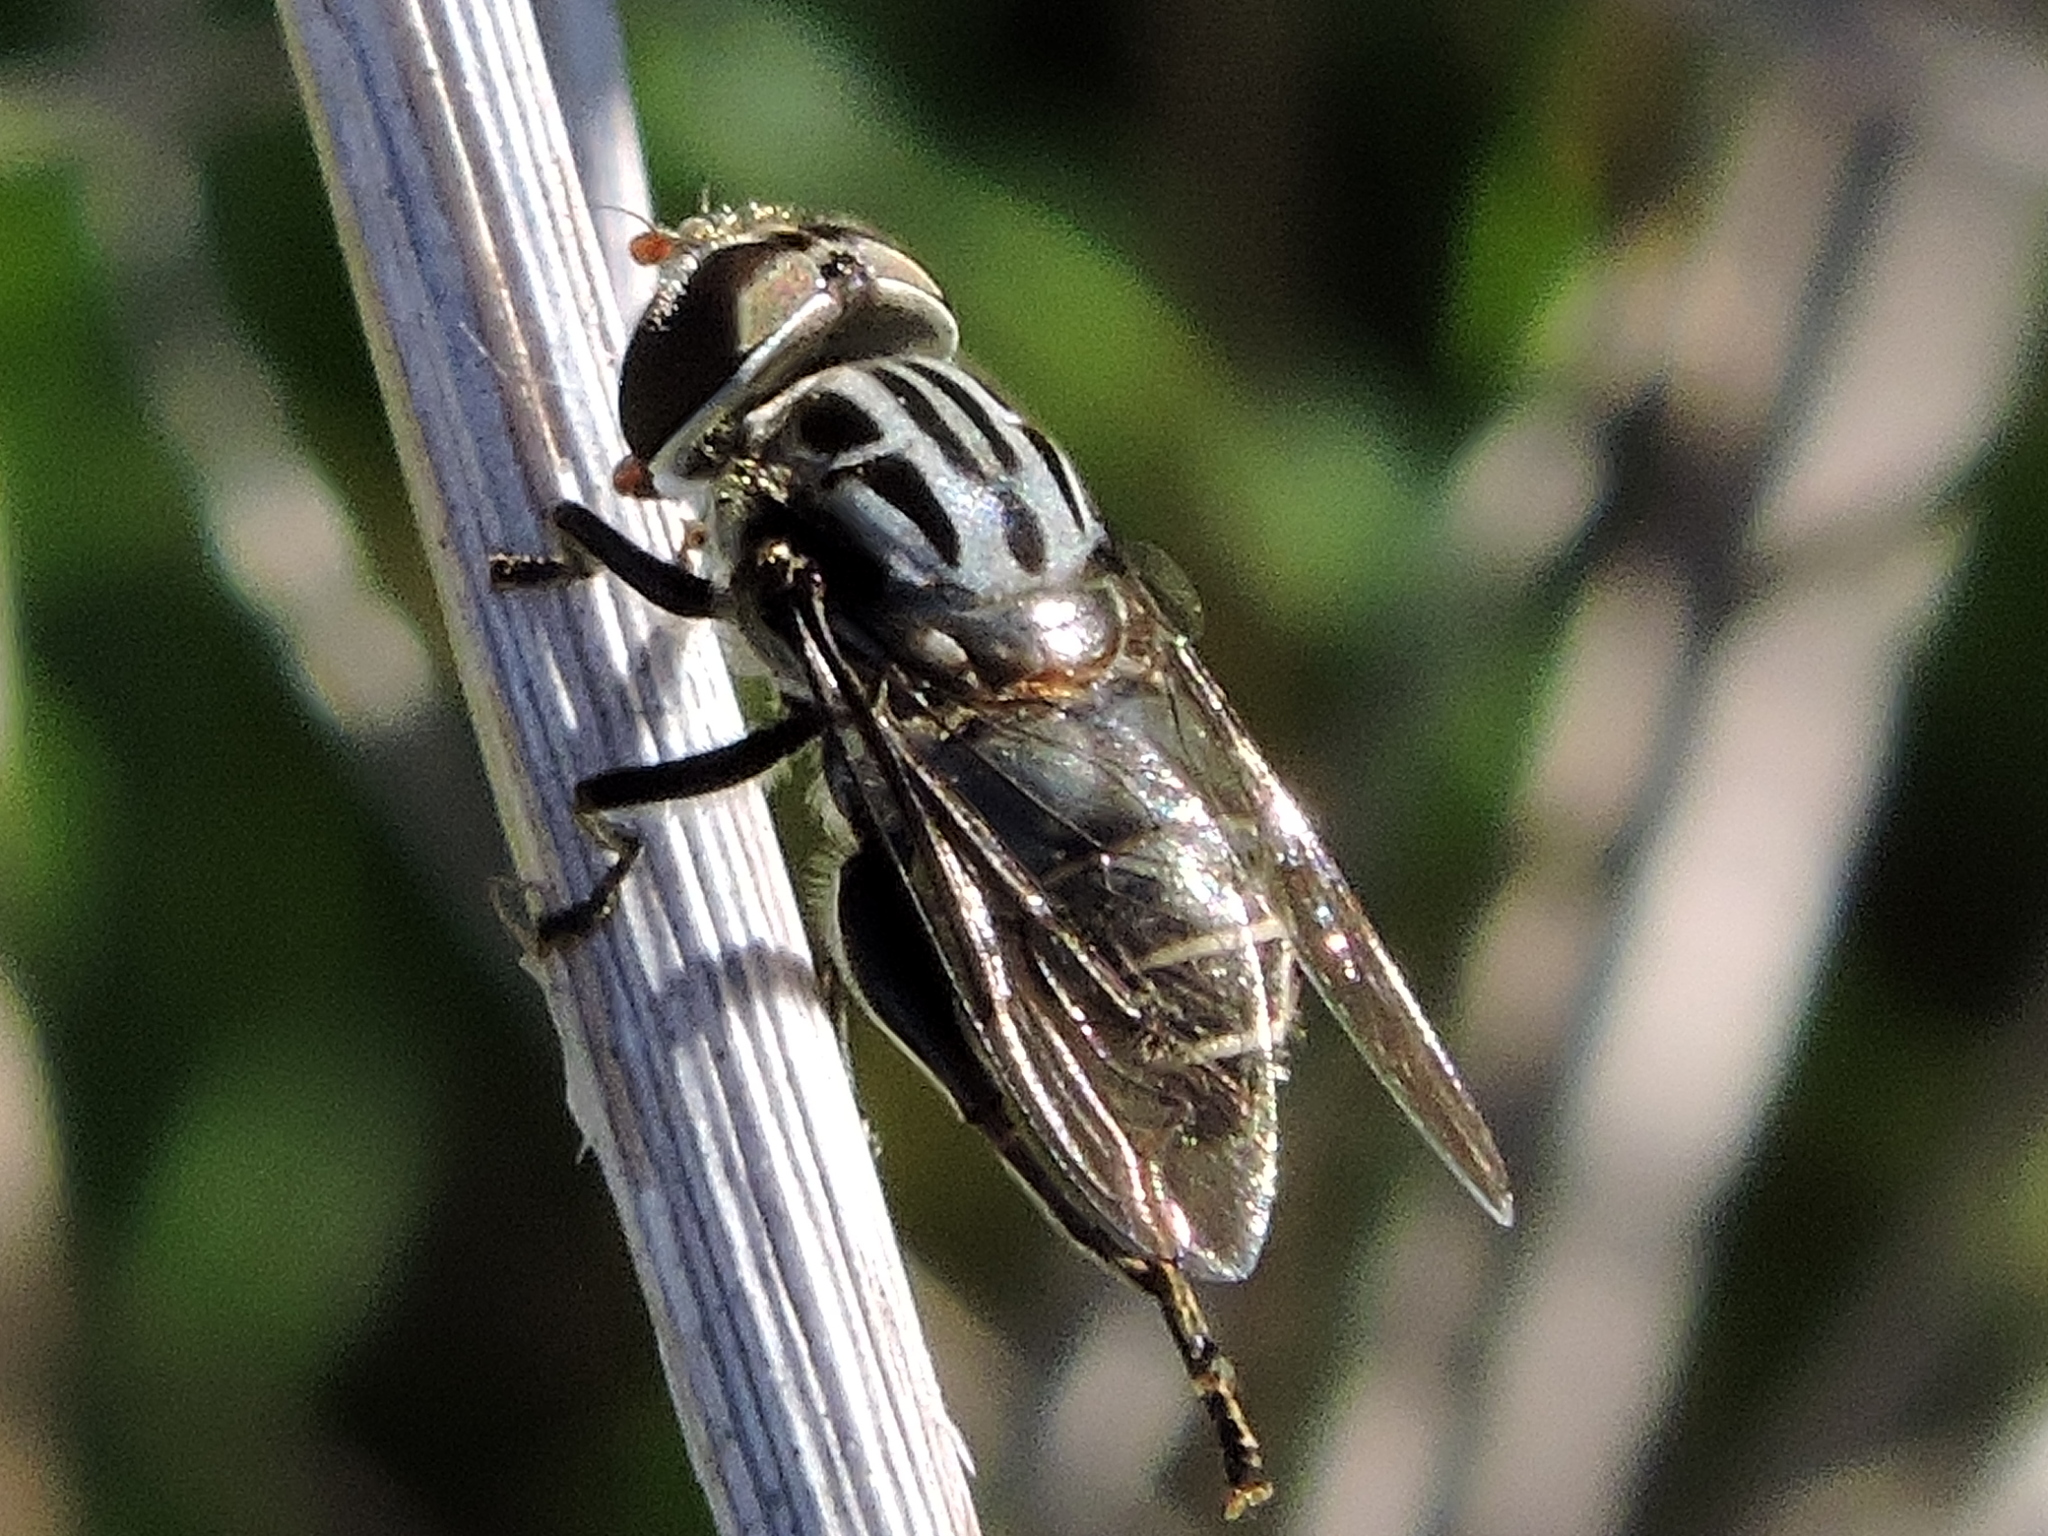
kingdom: Animalia
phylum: Arthropoda
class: Insecta
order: Diptera
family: Syrphidae
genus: Palpada
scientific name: Palpada furcata
